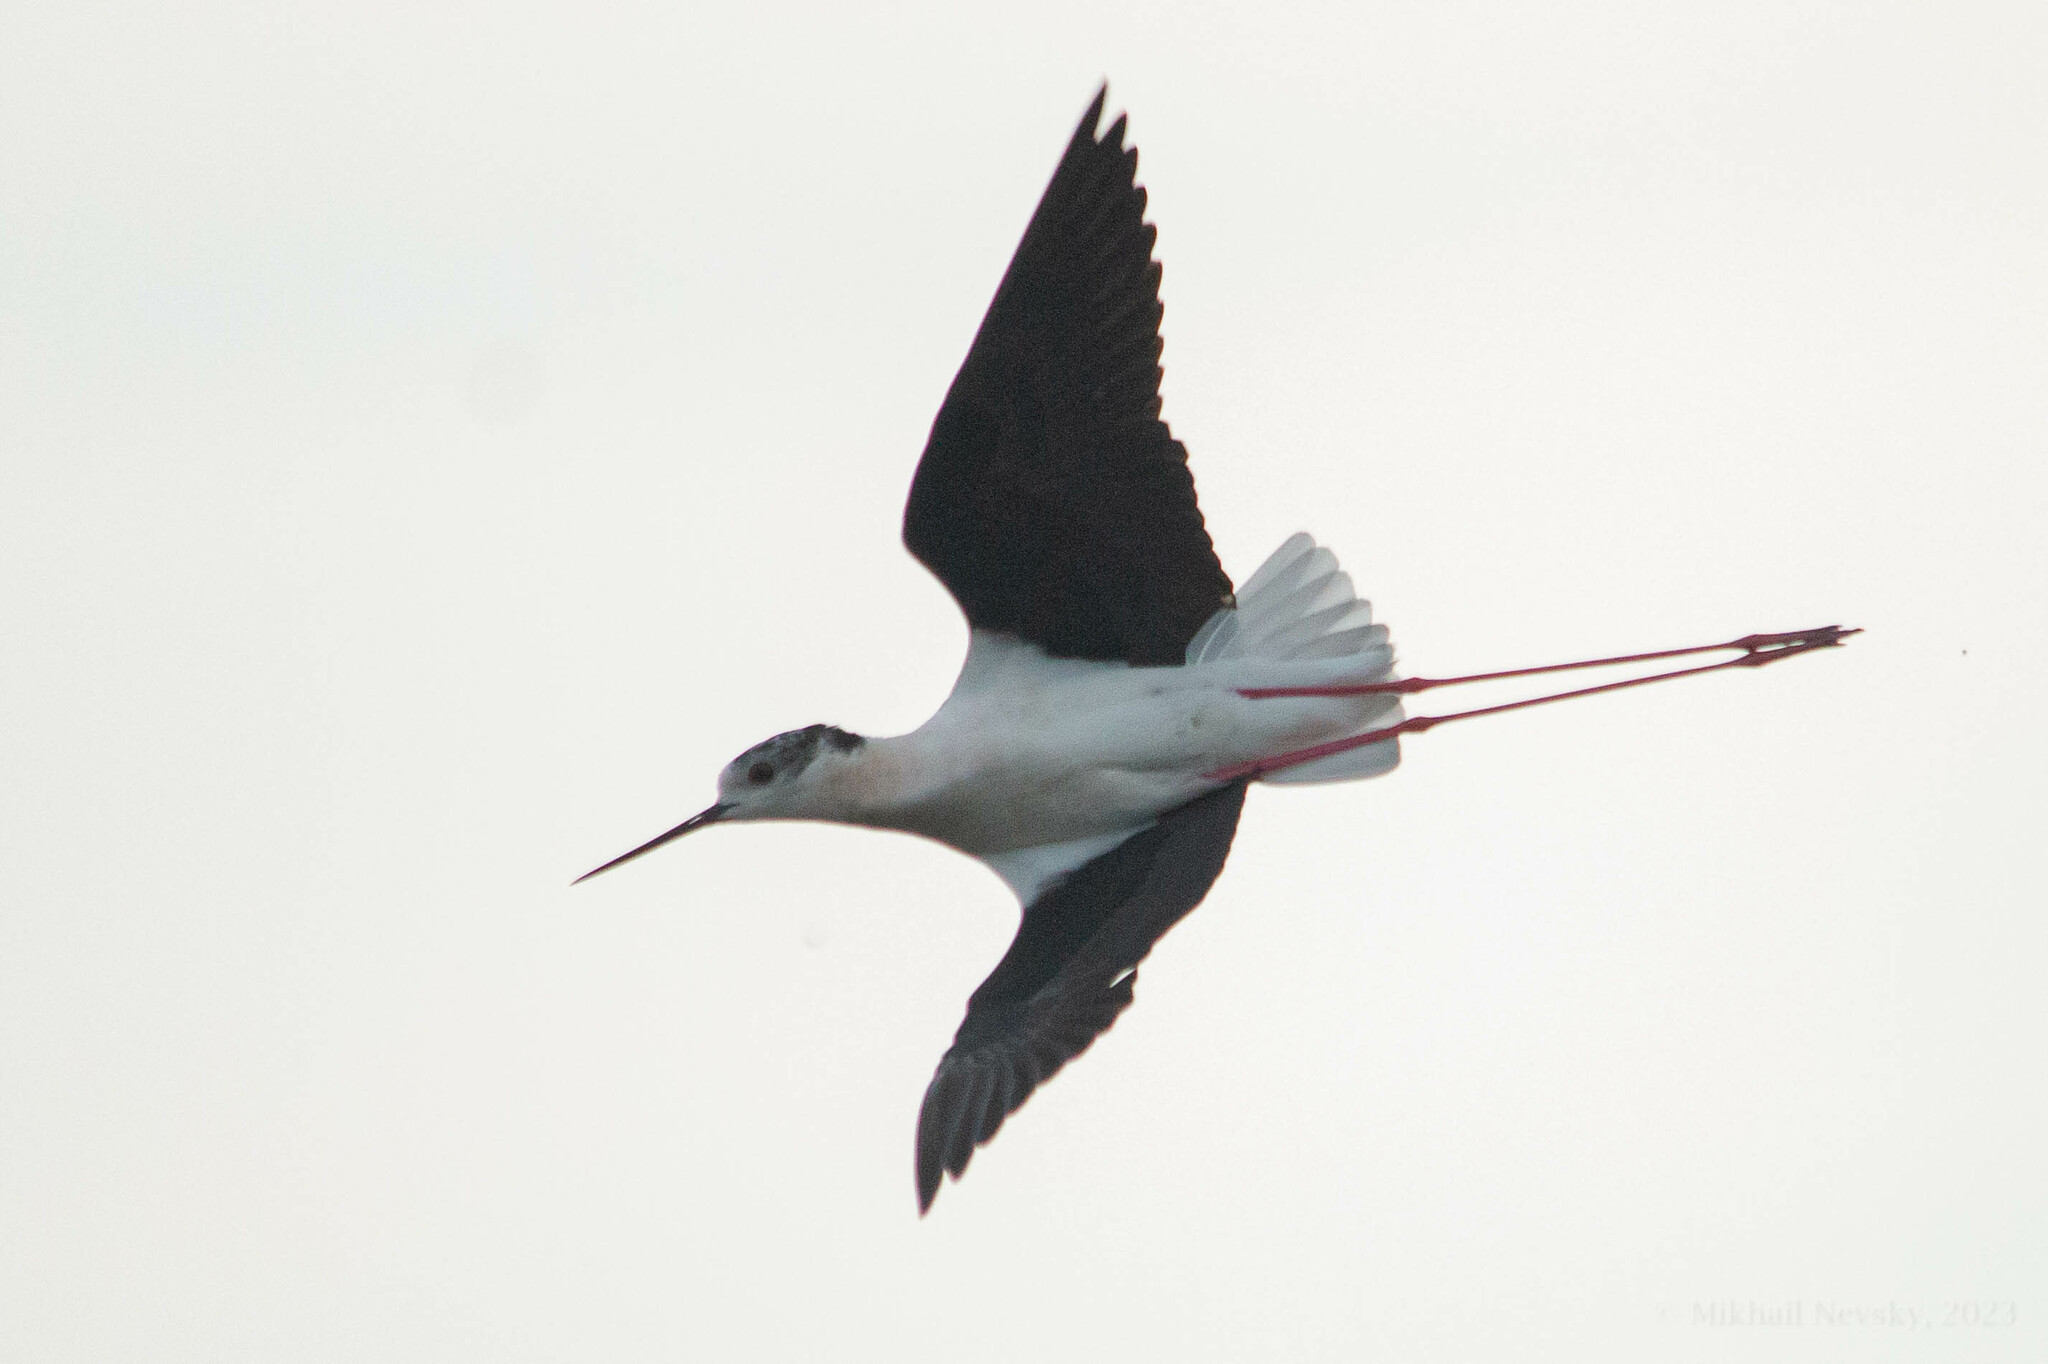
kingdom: Animalia
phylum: Chordata
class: Aves
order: Charadriiformes
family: Recurvirostridae
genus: Himantopus
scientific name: Himantopus himantopus
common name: Black-winged stilt
